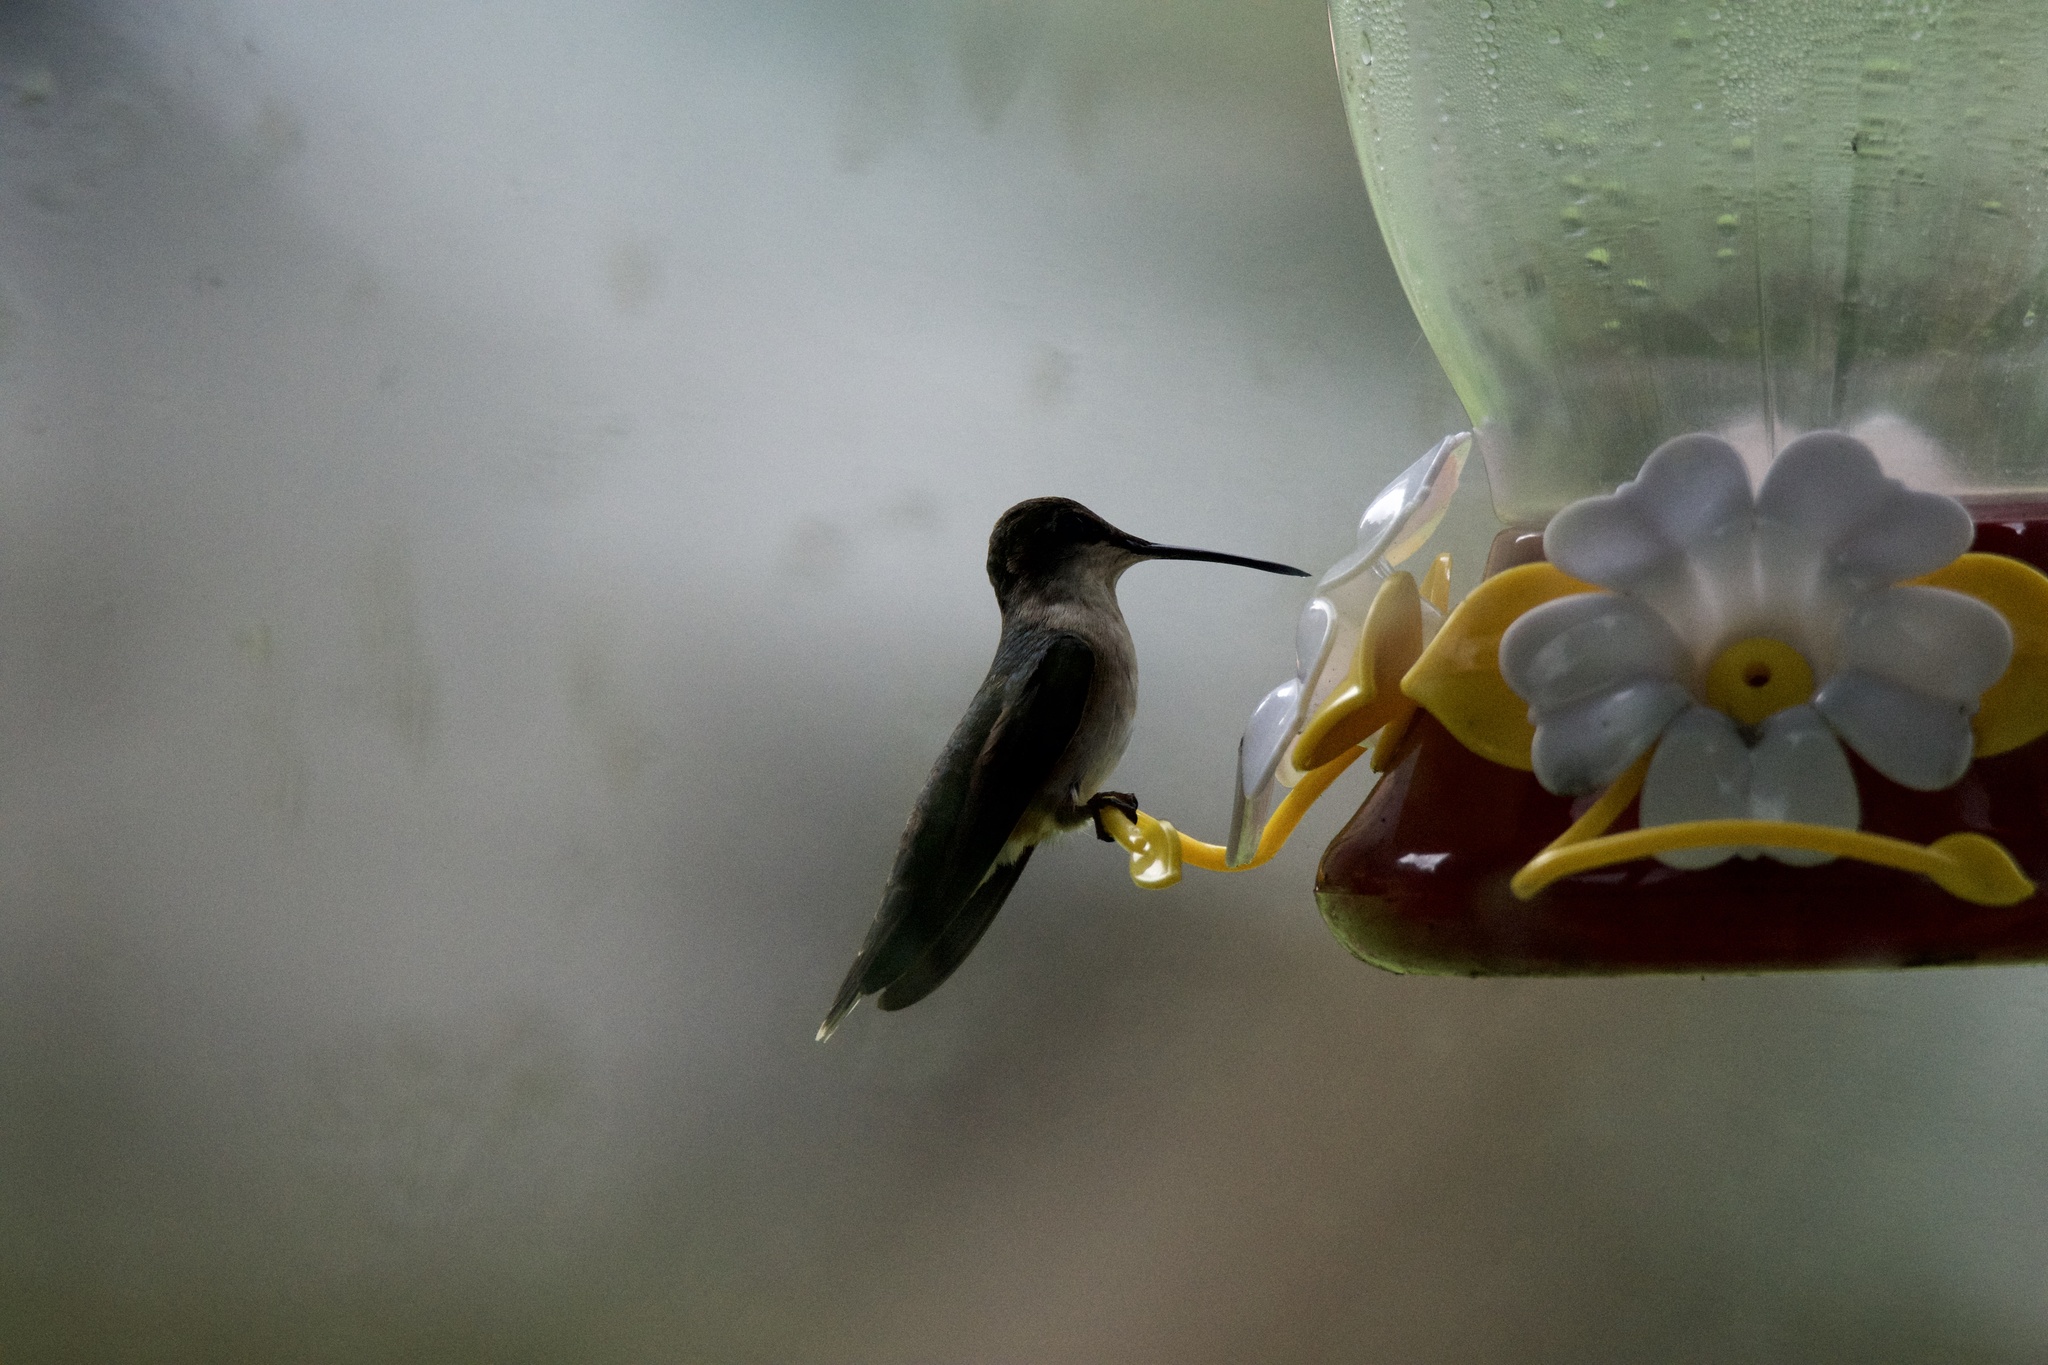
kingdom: Animalia
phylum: Chordata
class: Aves
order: Apodiformes
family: Trochilidae
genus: Archilochus
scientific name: Archilochus colubris
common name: Ruby-throated hummingbird
